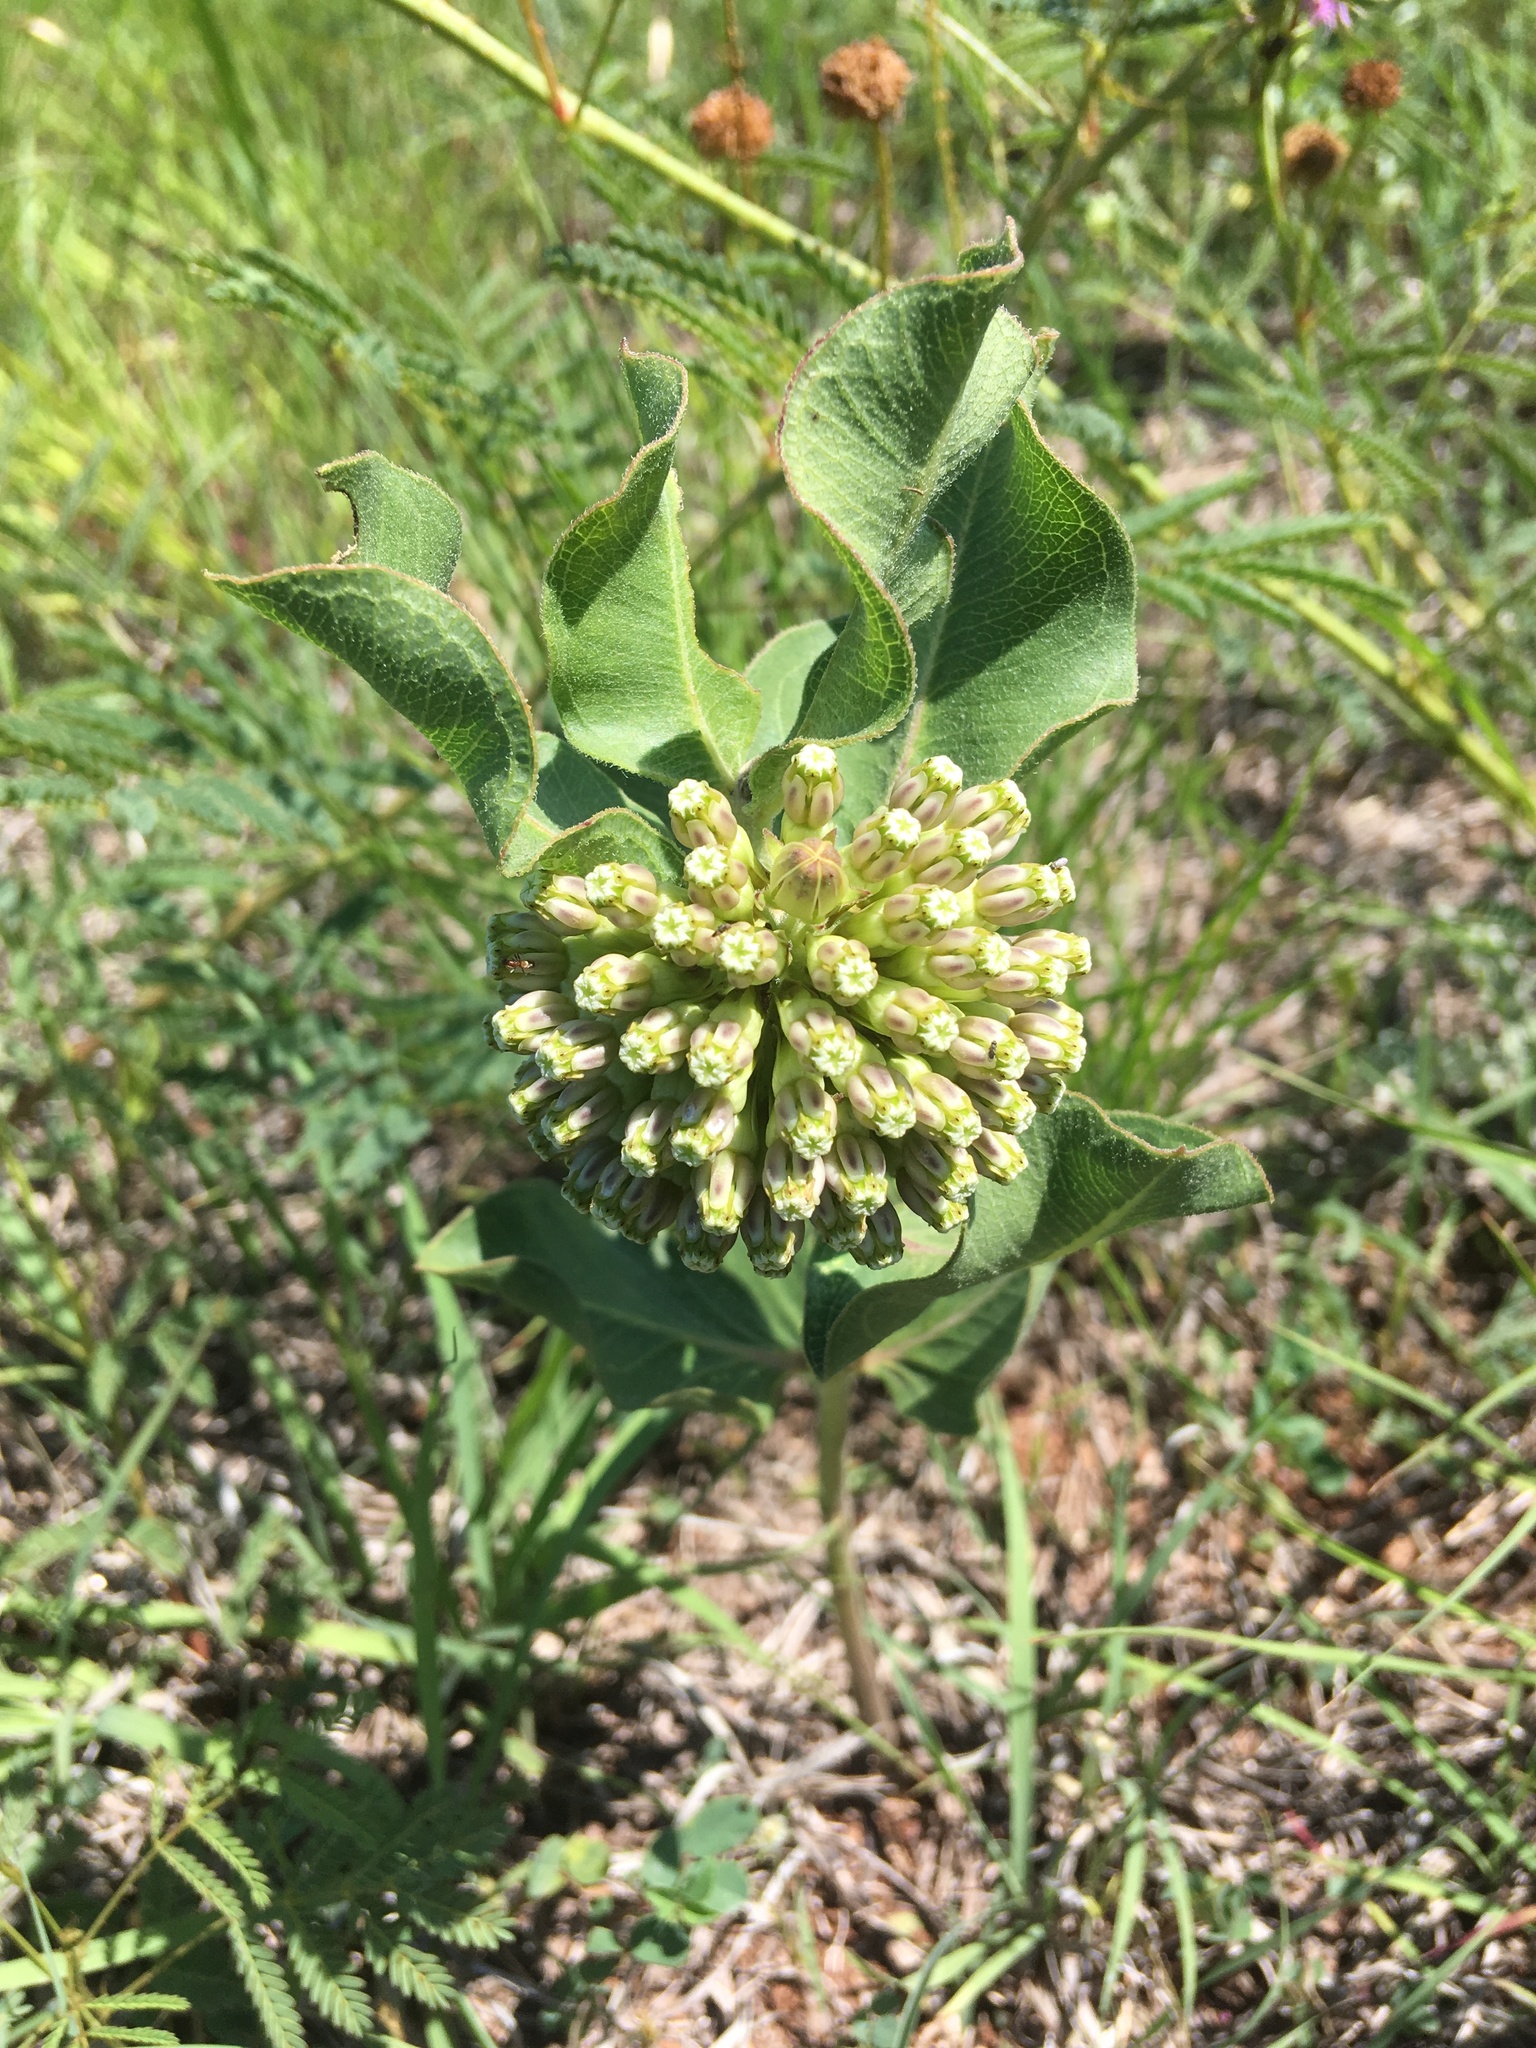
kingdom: Plantae
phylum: Tracheophyta
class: Magnoliopsida
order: Gentianales
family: Apocynaceae
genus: Asclepias
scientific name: Asclepias viridiflora
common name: Green comet milkweed
